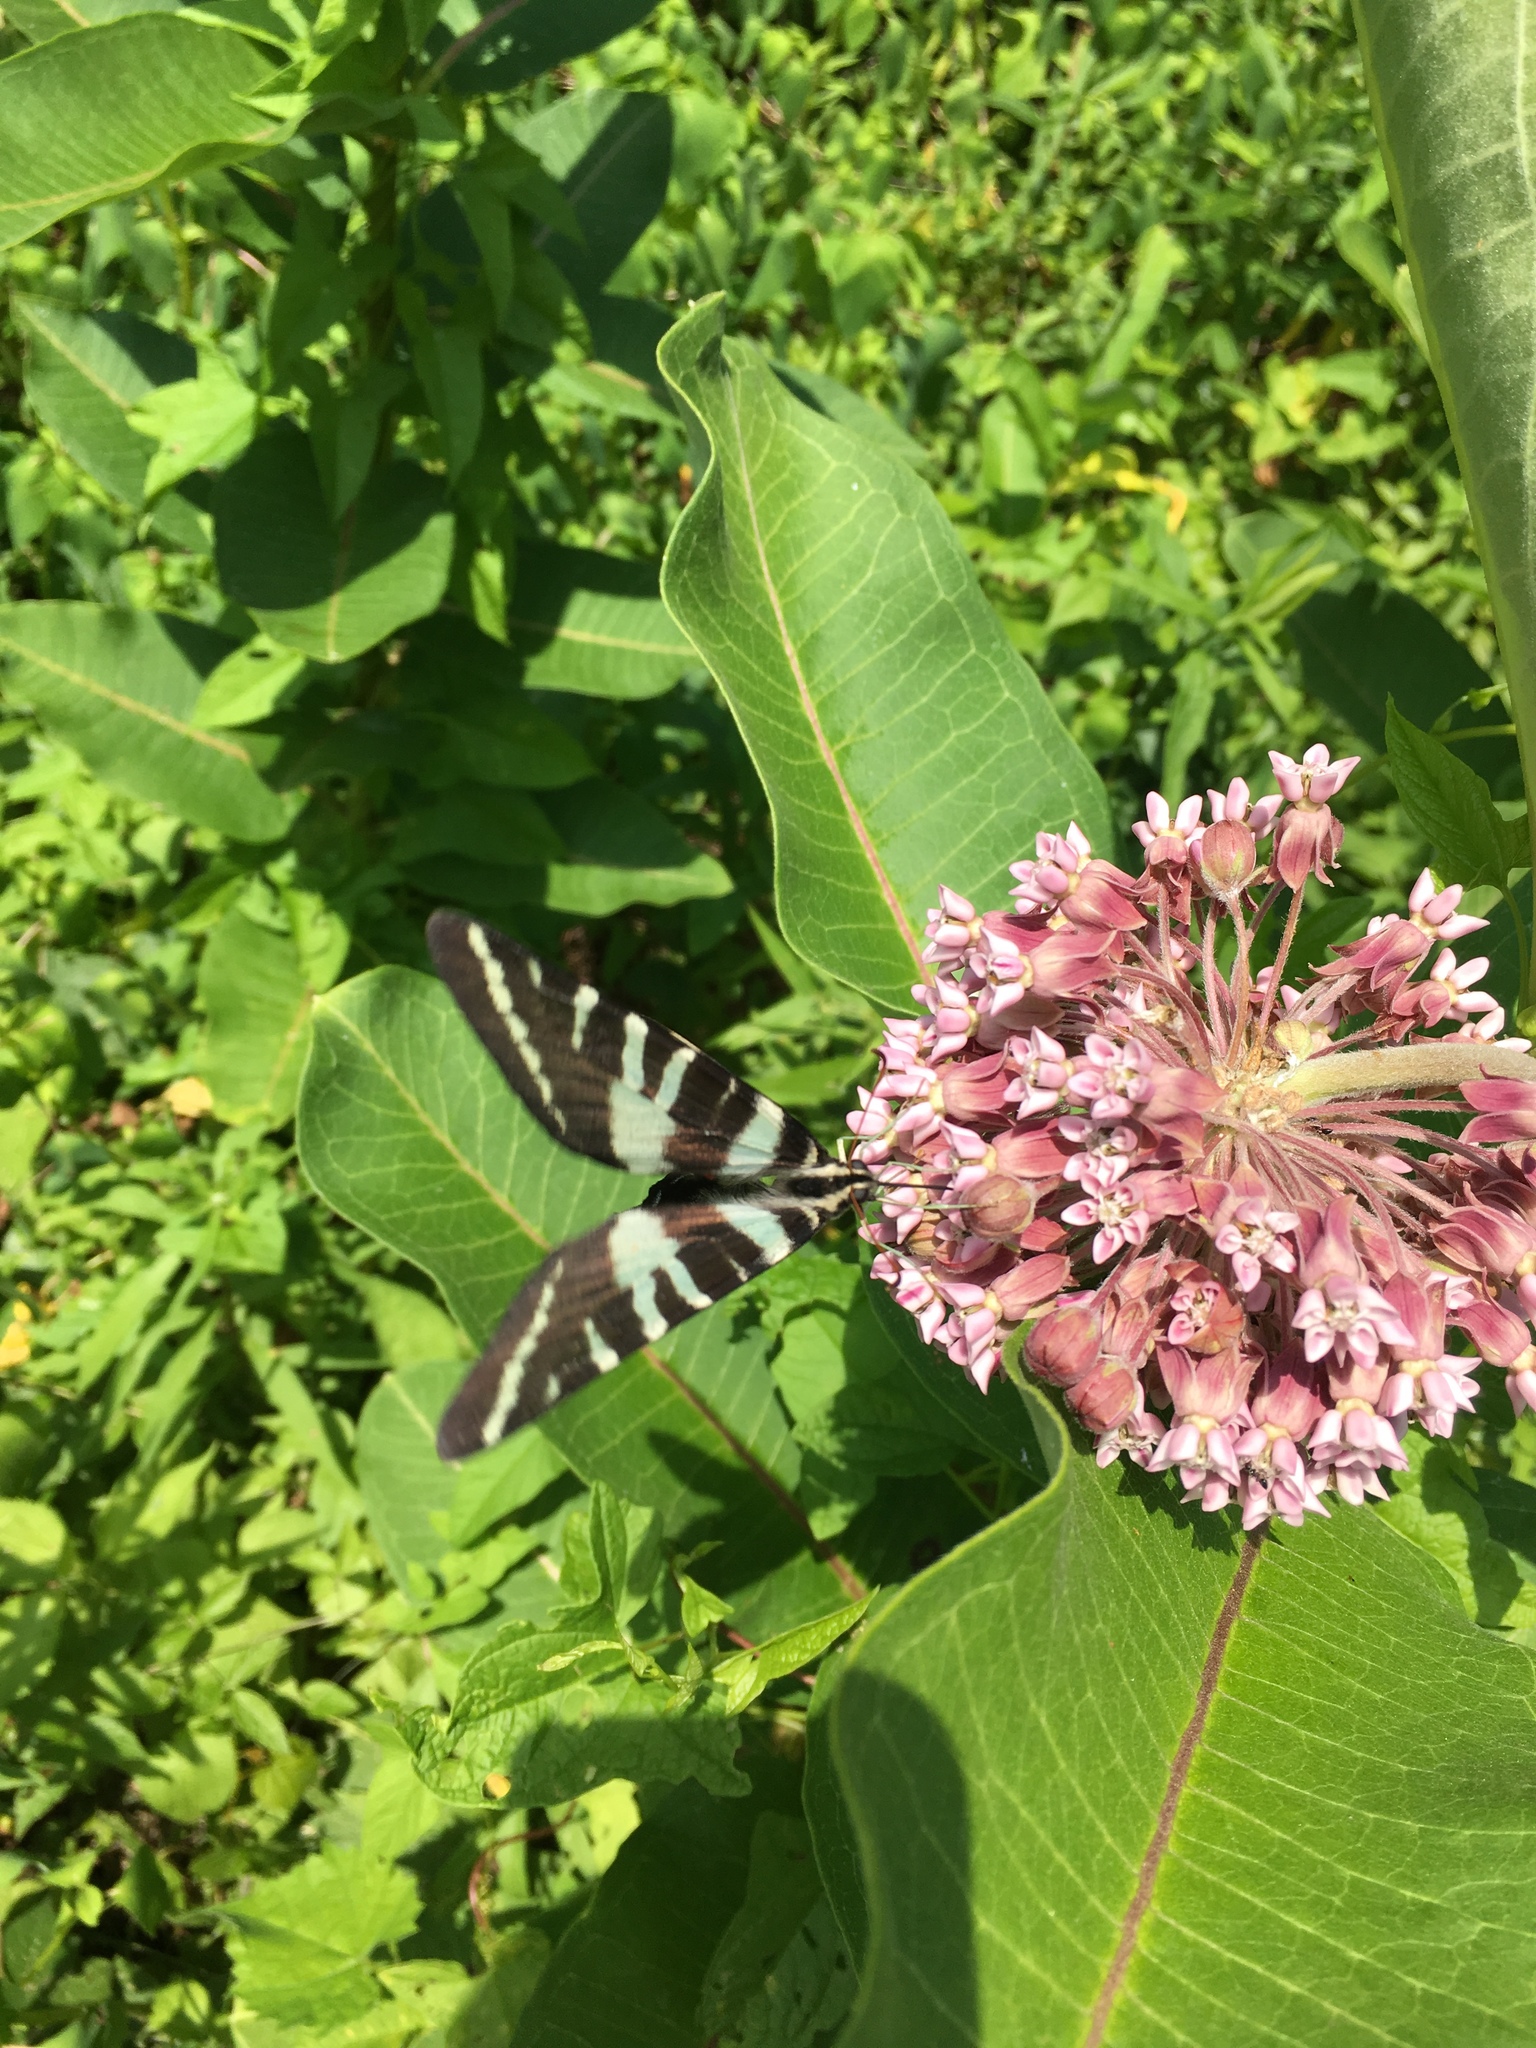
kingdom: Animalia
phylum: Arthropoda
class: Insecta
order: Lepidoptera
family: Papilionidae
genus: Protographium
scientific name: Protographium marcellus
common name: Zebra swallowtail
